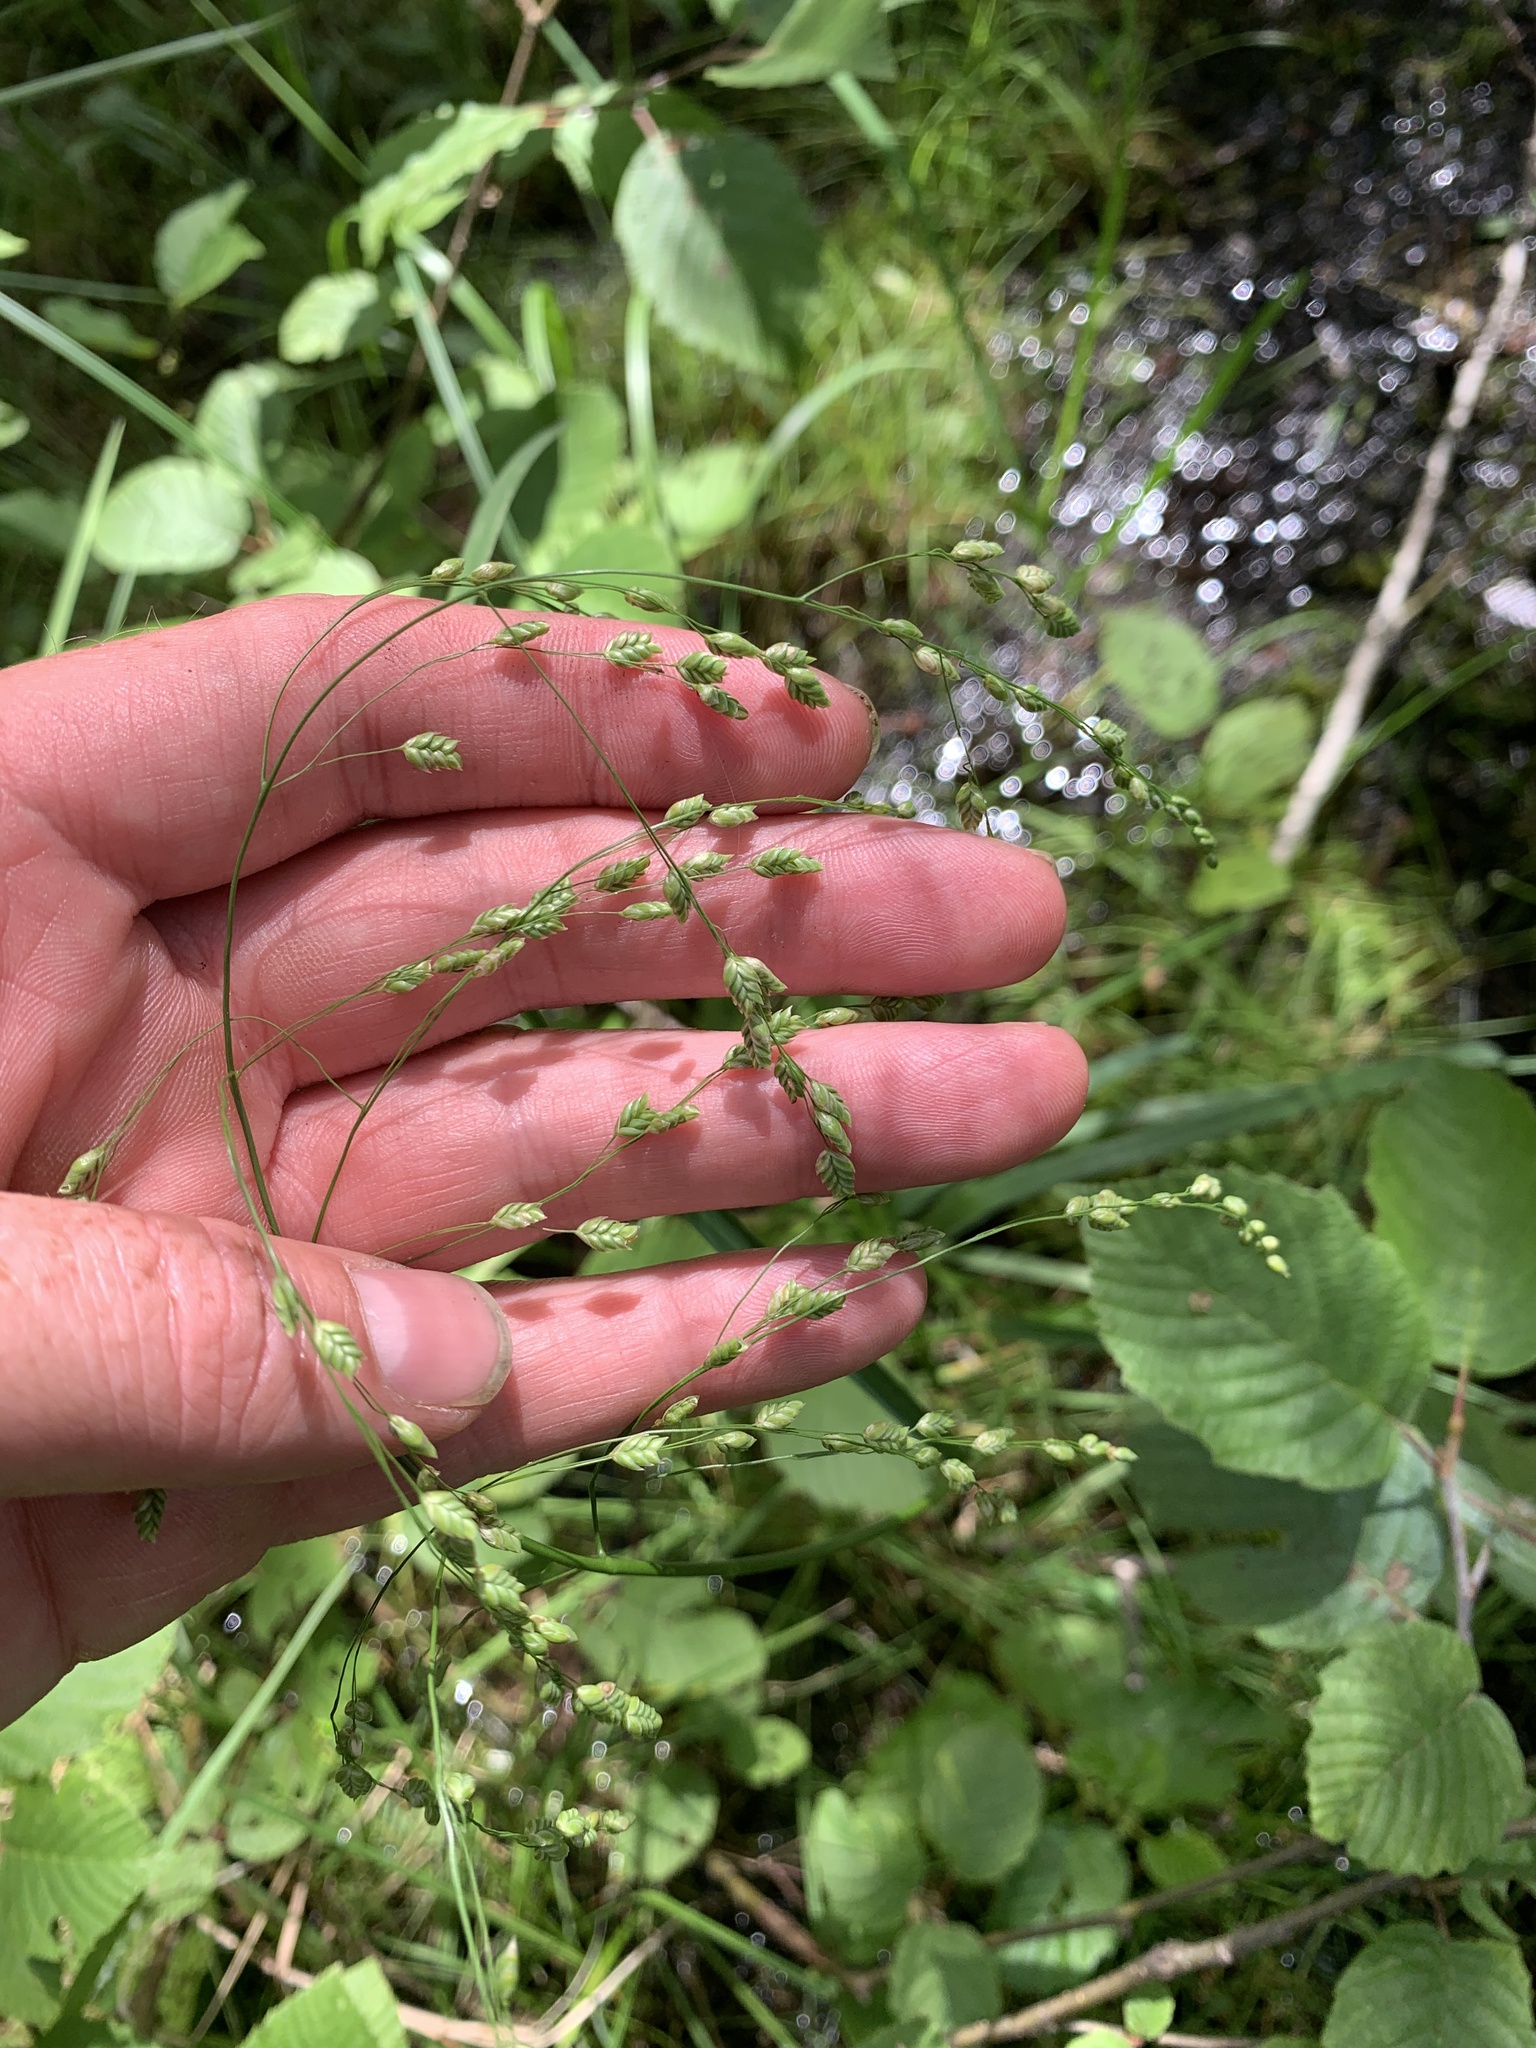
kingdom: Plantae
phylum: Tracheophyta
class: Liliopsida
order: Poales
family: Poaceae
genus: Glyceria
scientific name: Glyceria canadensis
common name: Canada mannagrass
